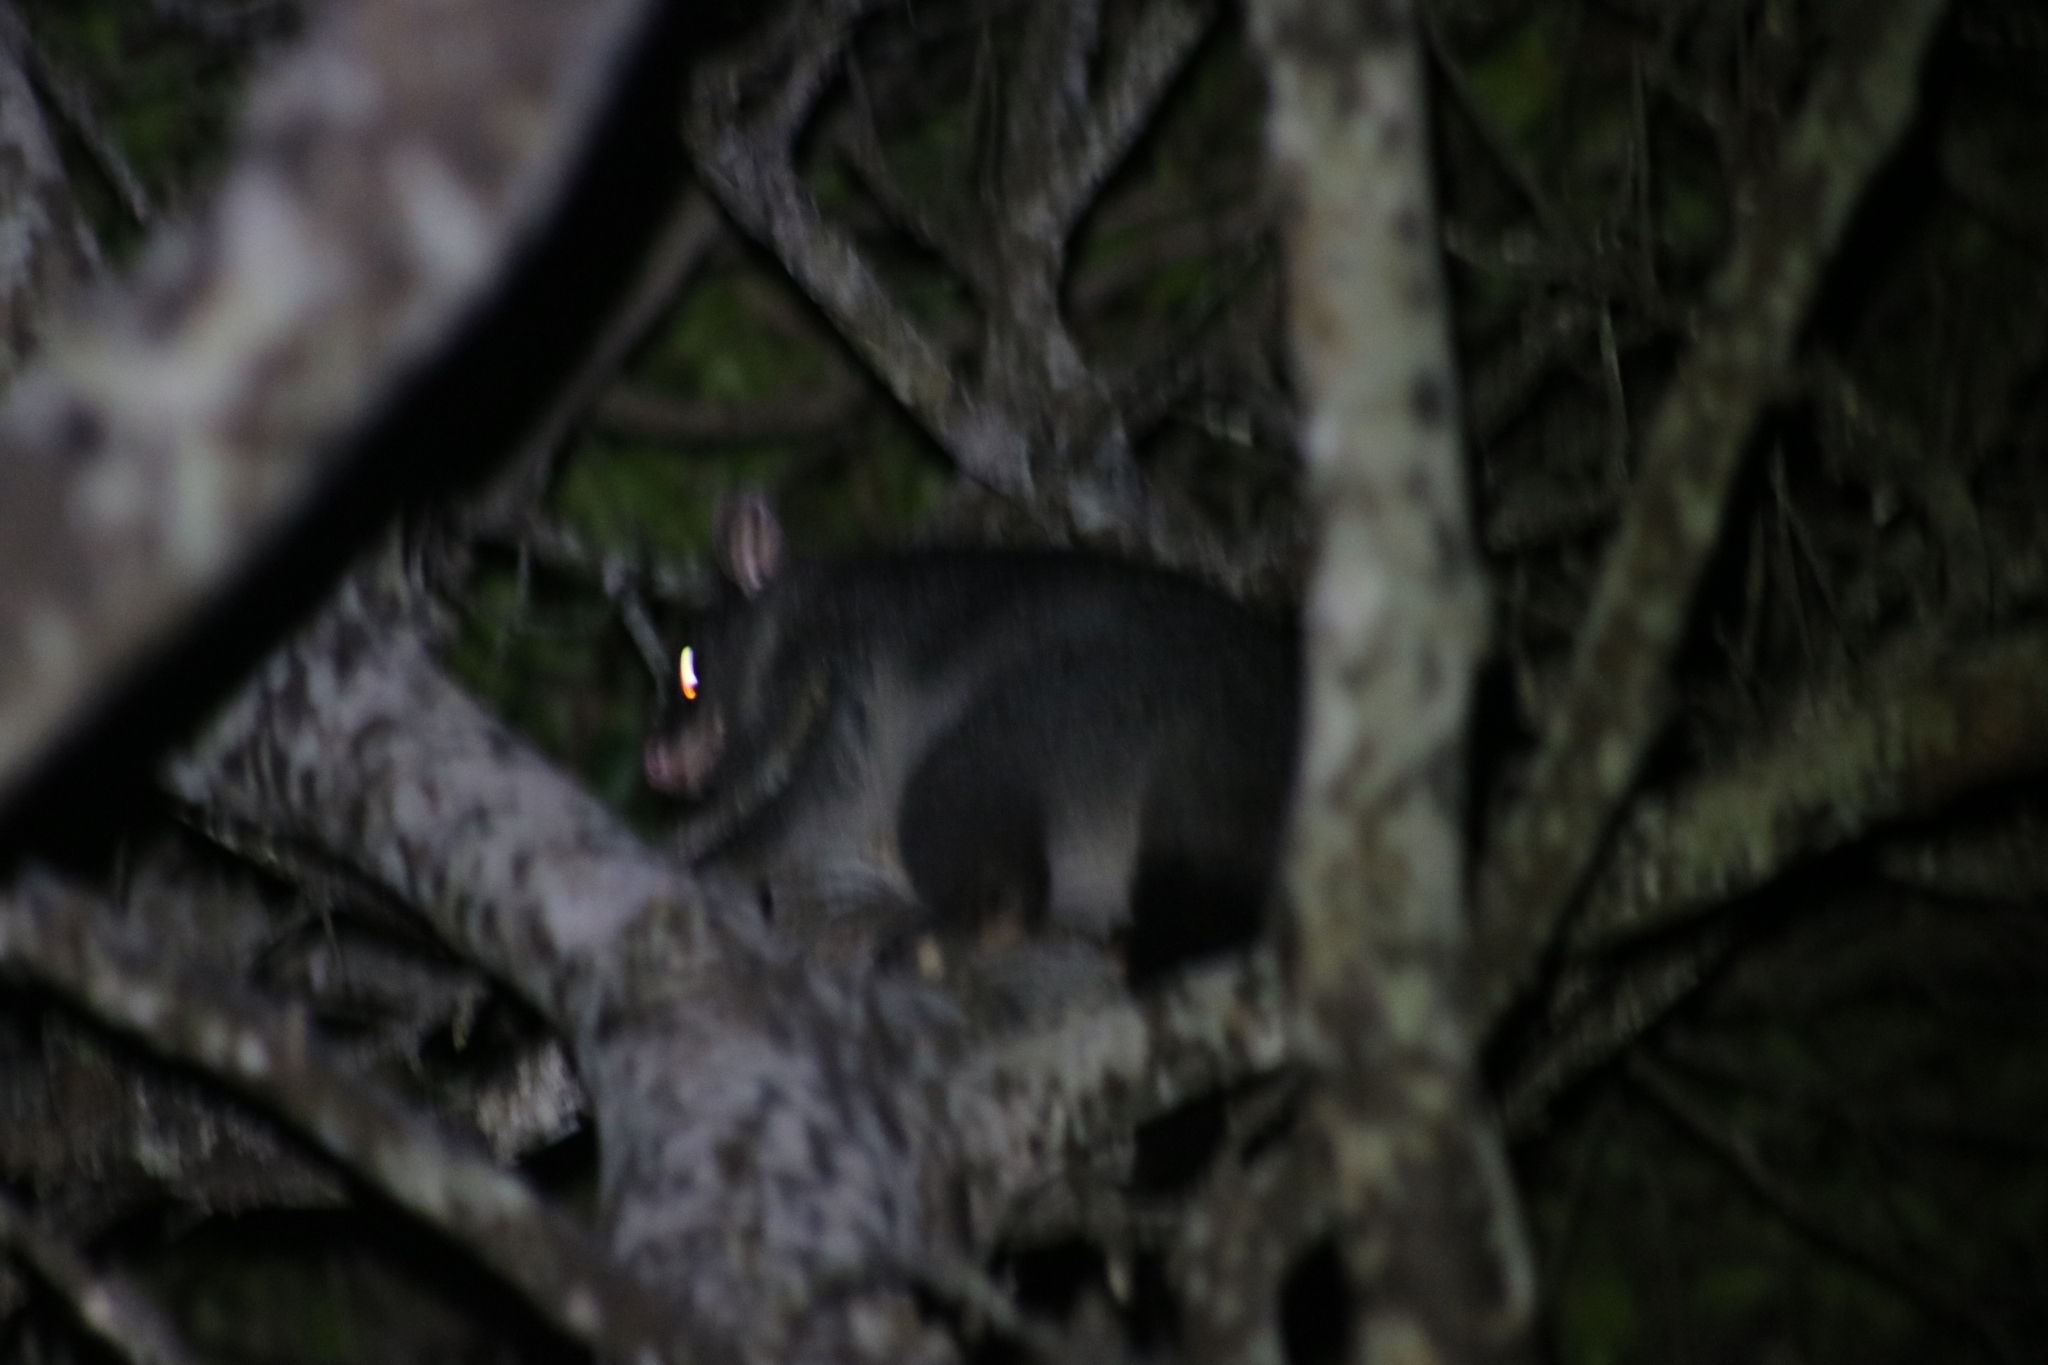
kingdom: Animalia
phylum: Chordata
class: Mammalia
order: Diprotodontia
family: Phalangeridae
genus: Trichosurus
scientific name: Trichosurus caninus
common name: Short-eared possum
